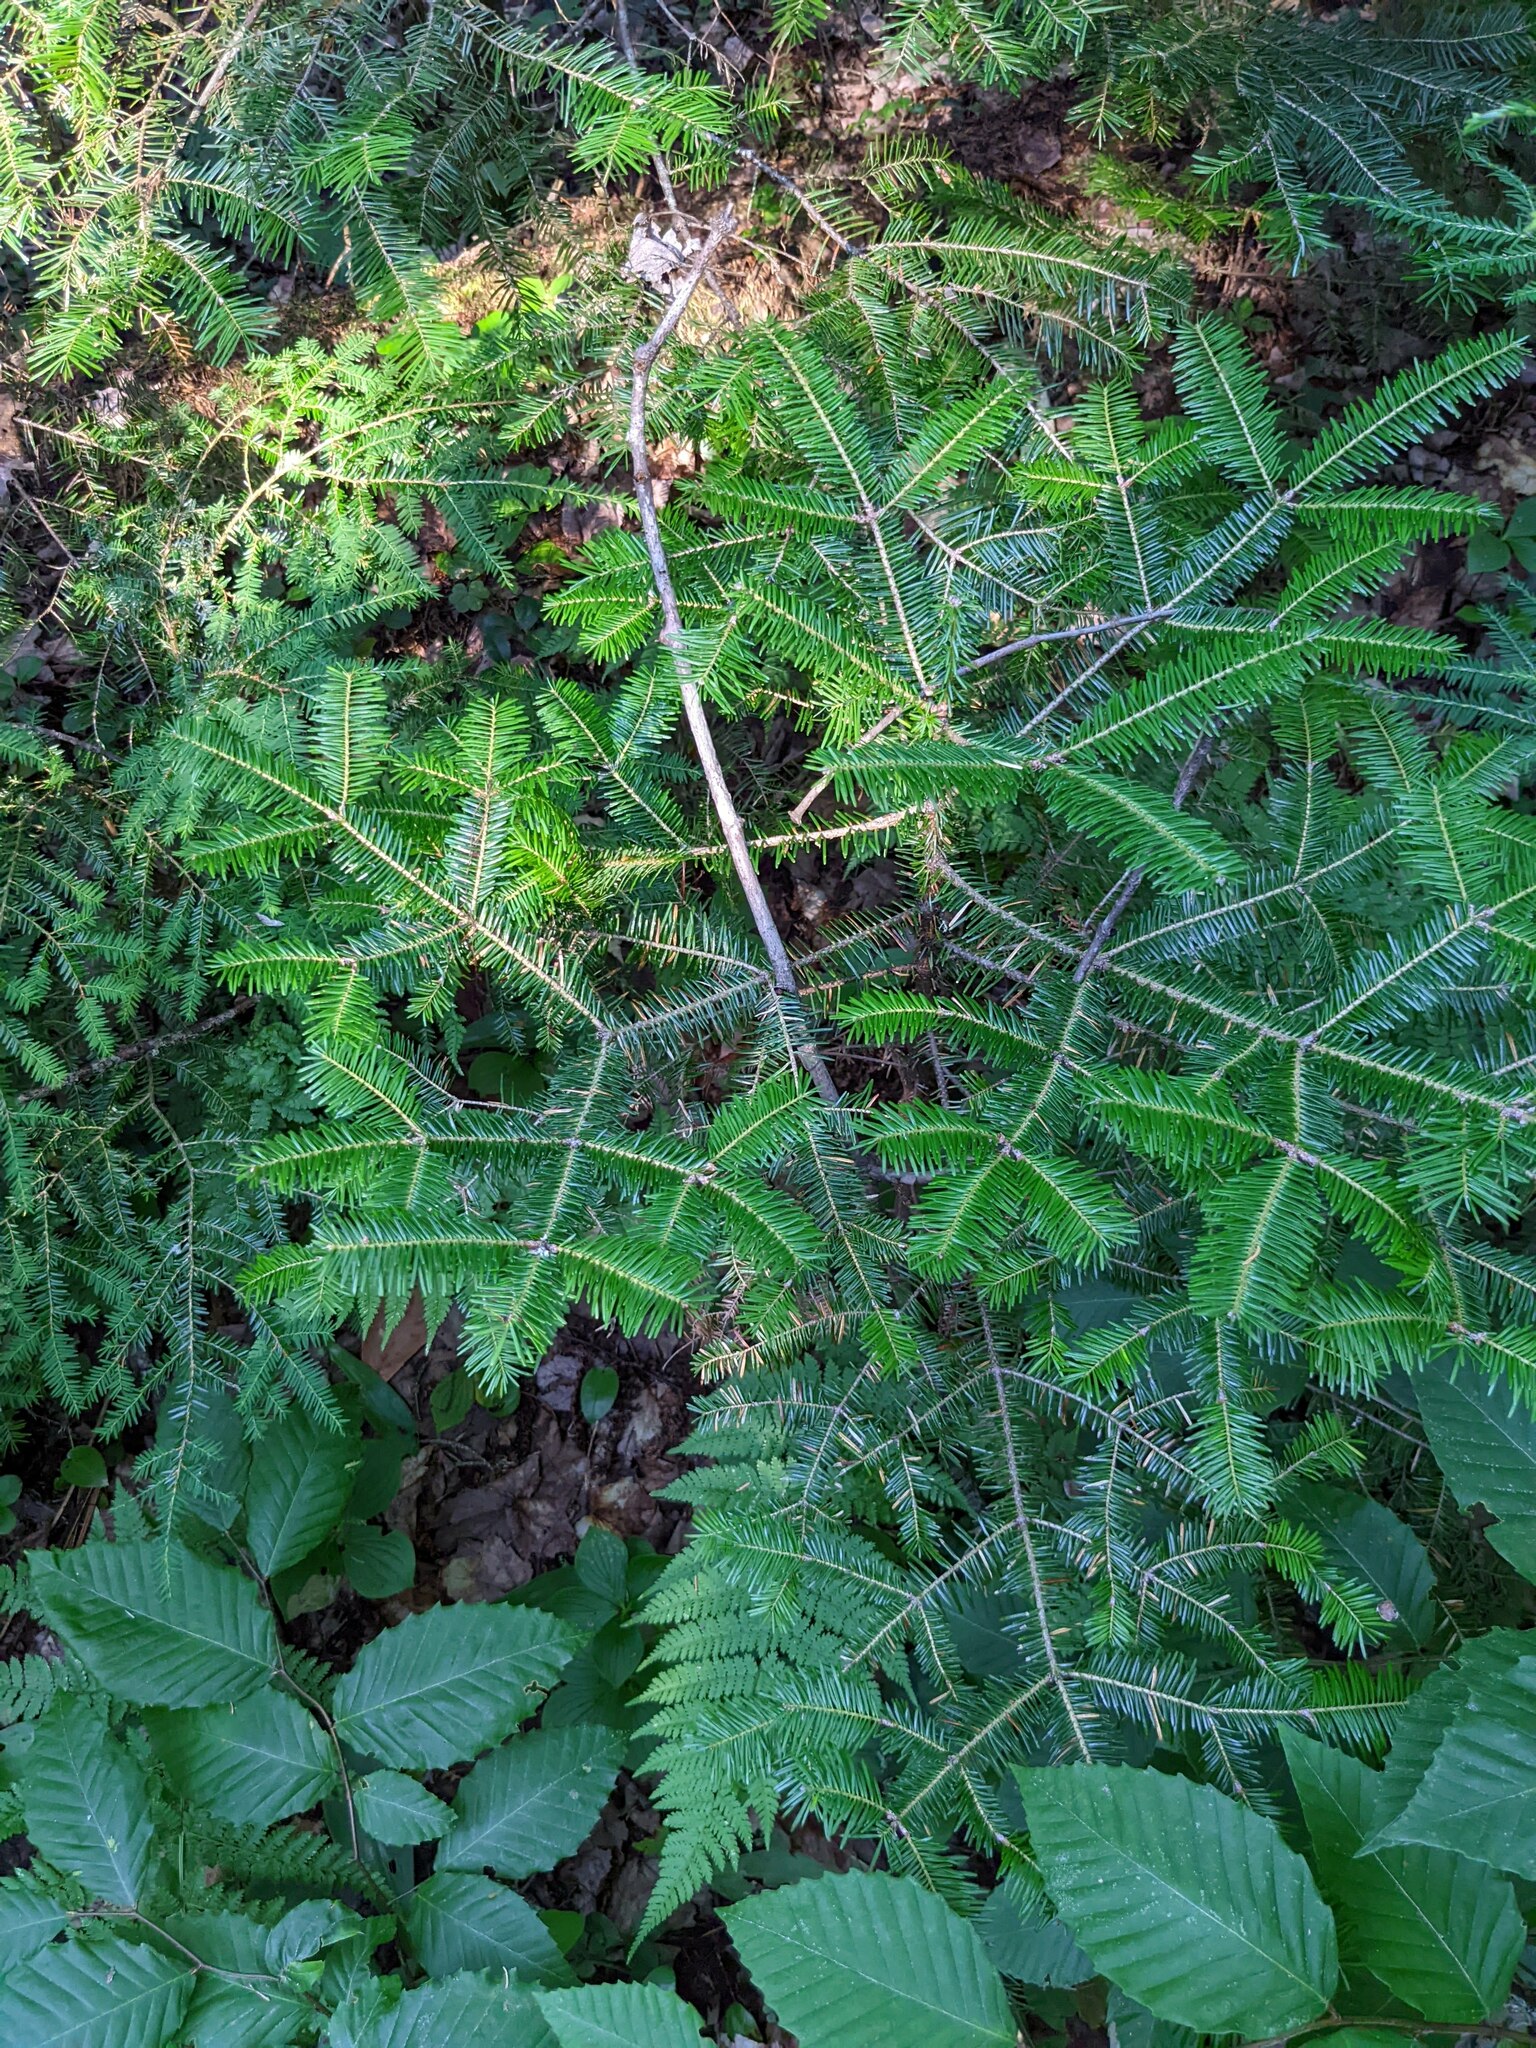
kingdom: Plantae
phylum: Tracheophyta
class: Pinopsida
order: Pinales
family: Pinaceae
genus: Abies
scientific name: Abies balsamea
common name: Balsam fir
